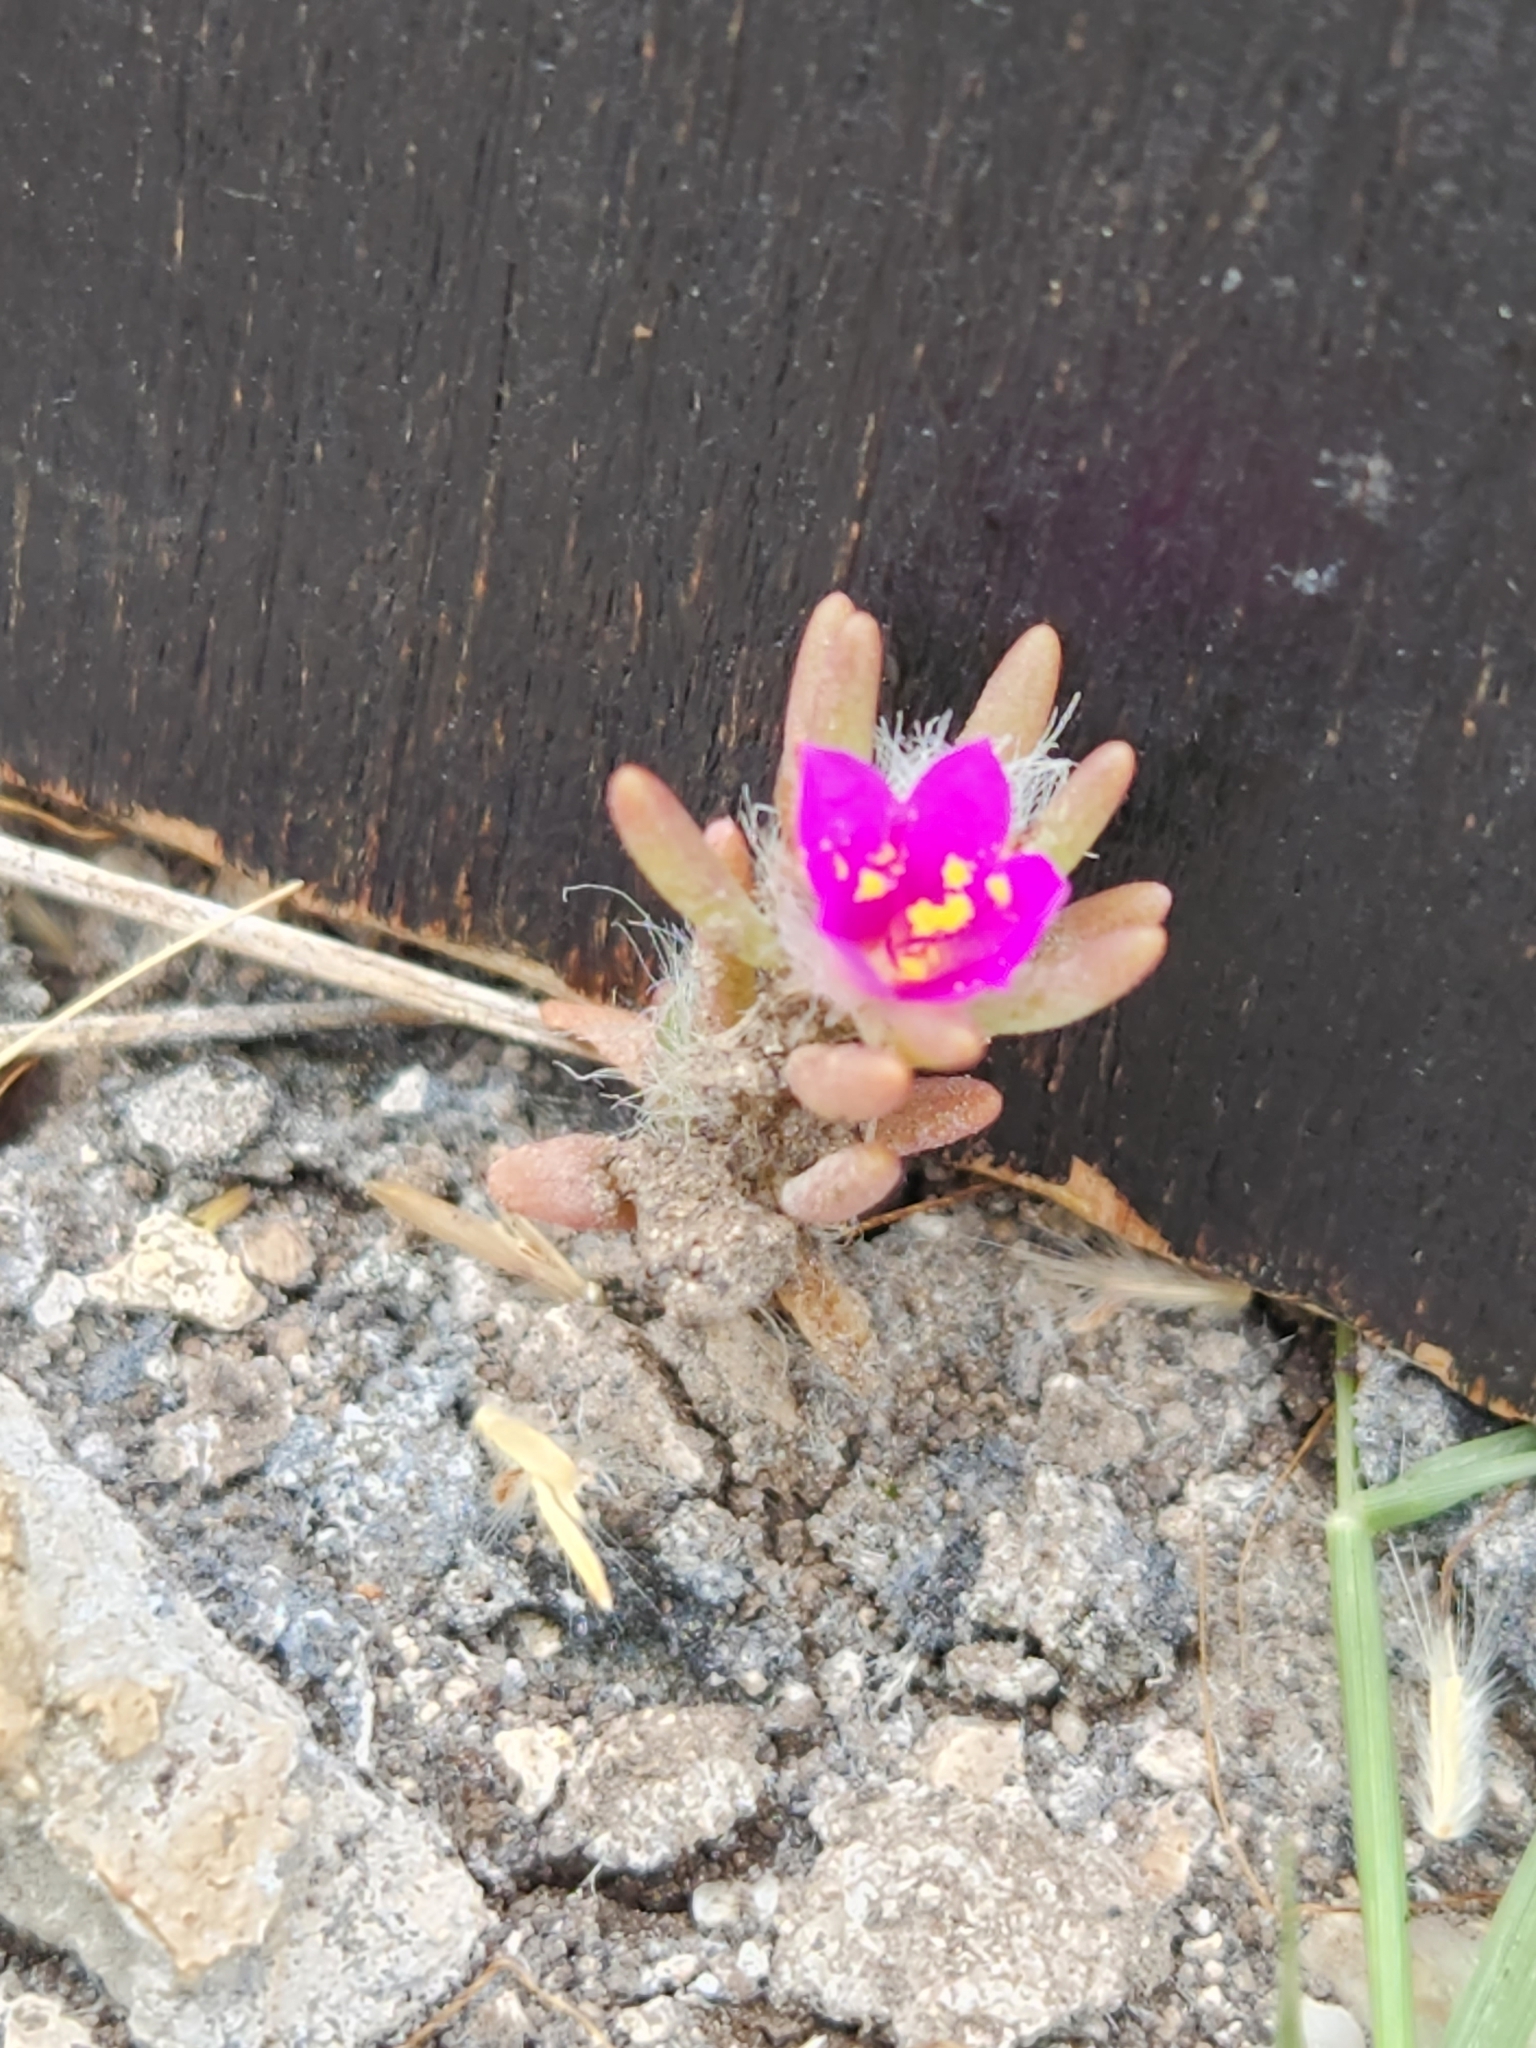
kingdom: Plantae
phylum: Tracheophyta
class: Magnoliopsida
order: Caryophyllales
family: Portulacaceae
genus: Portulaca
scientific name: Portulaca pilosa
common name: Kiss me quick
